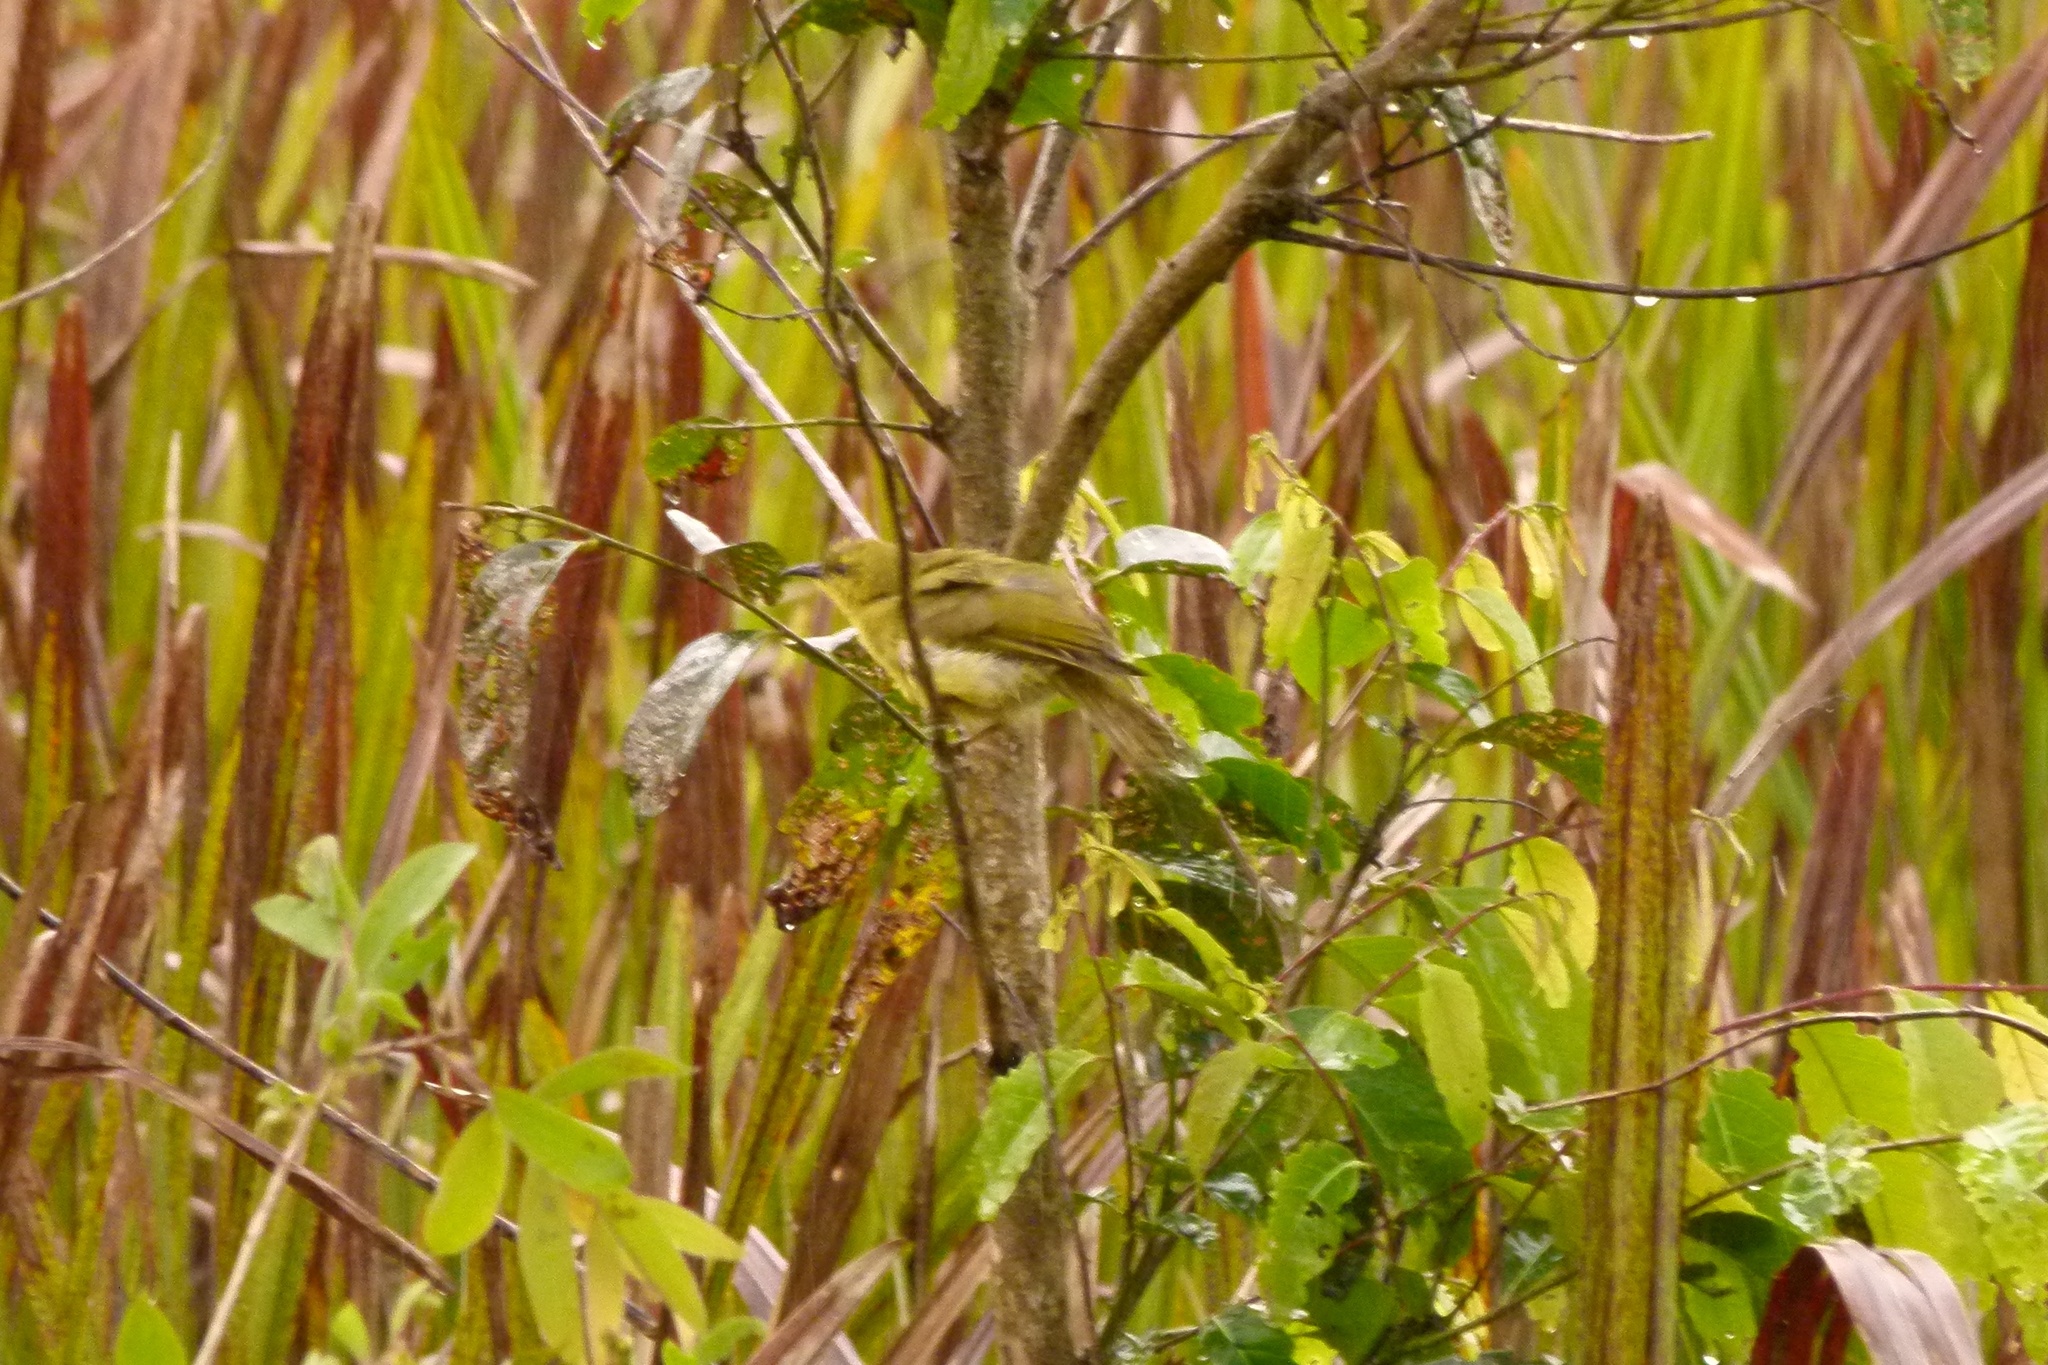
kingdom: Animalia
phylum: Chordata
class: Aves
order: Passeriformes
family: Meliphagidae
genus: Stomiopera
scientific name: Stomiopera flava
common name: Yellow honeyeater
